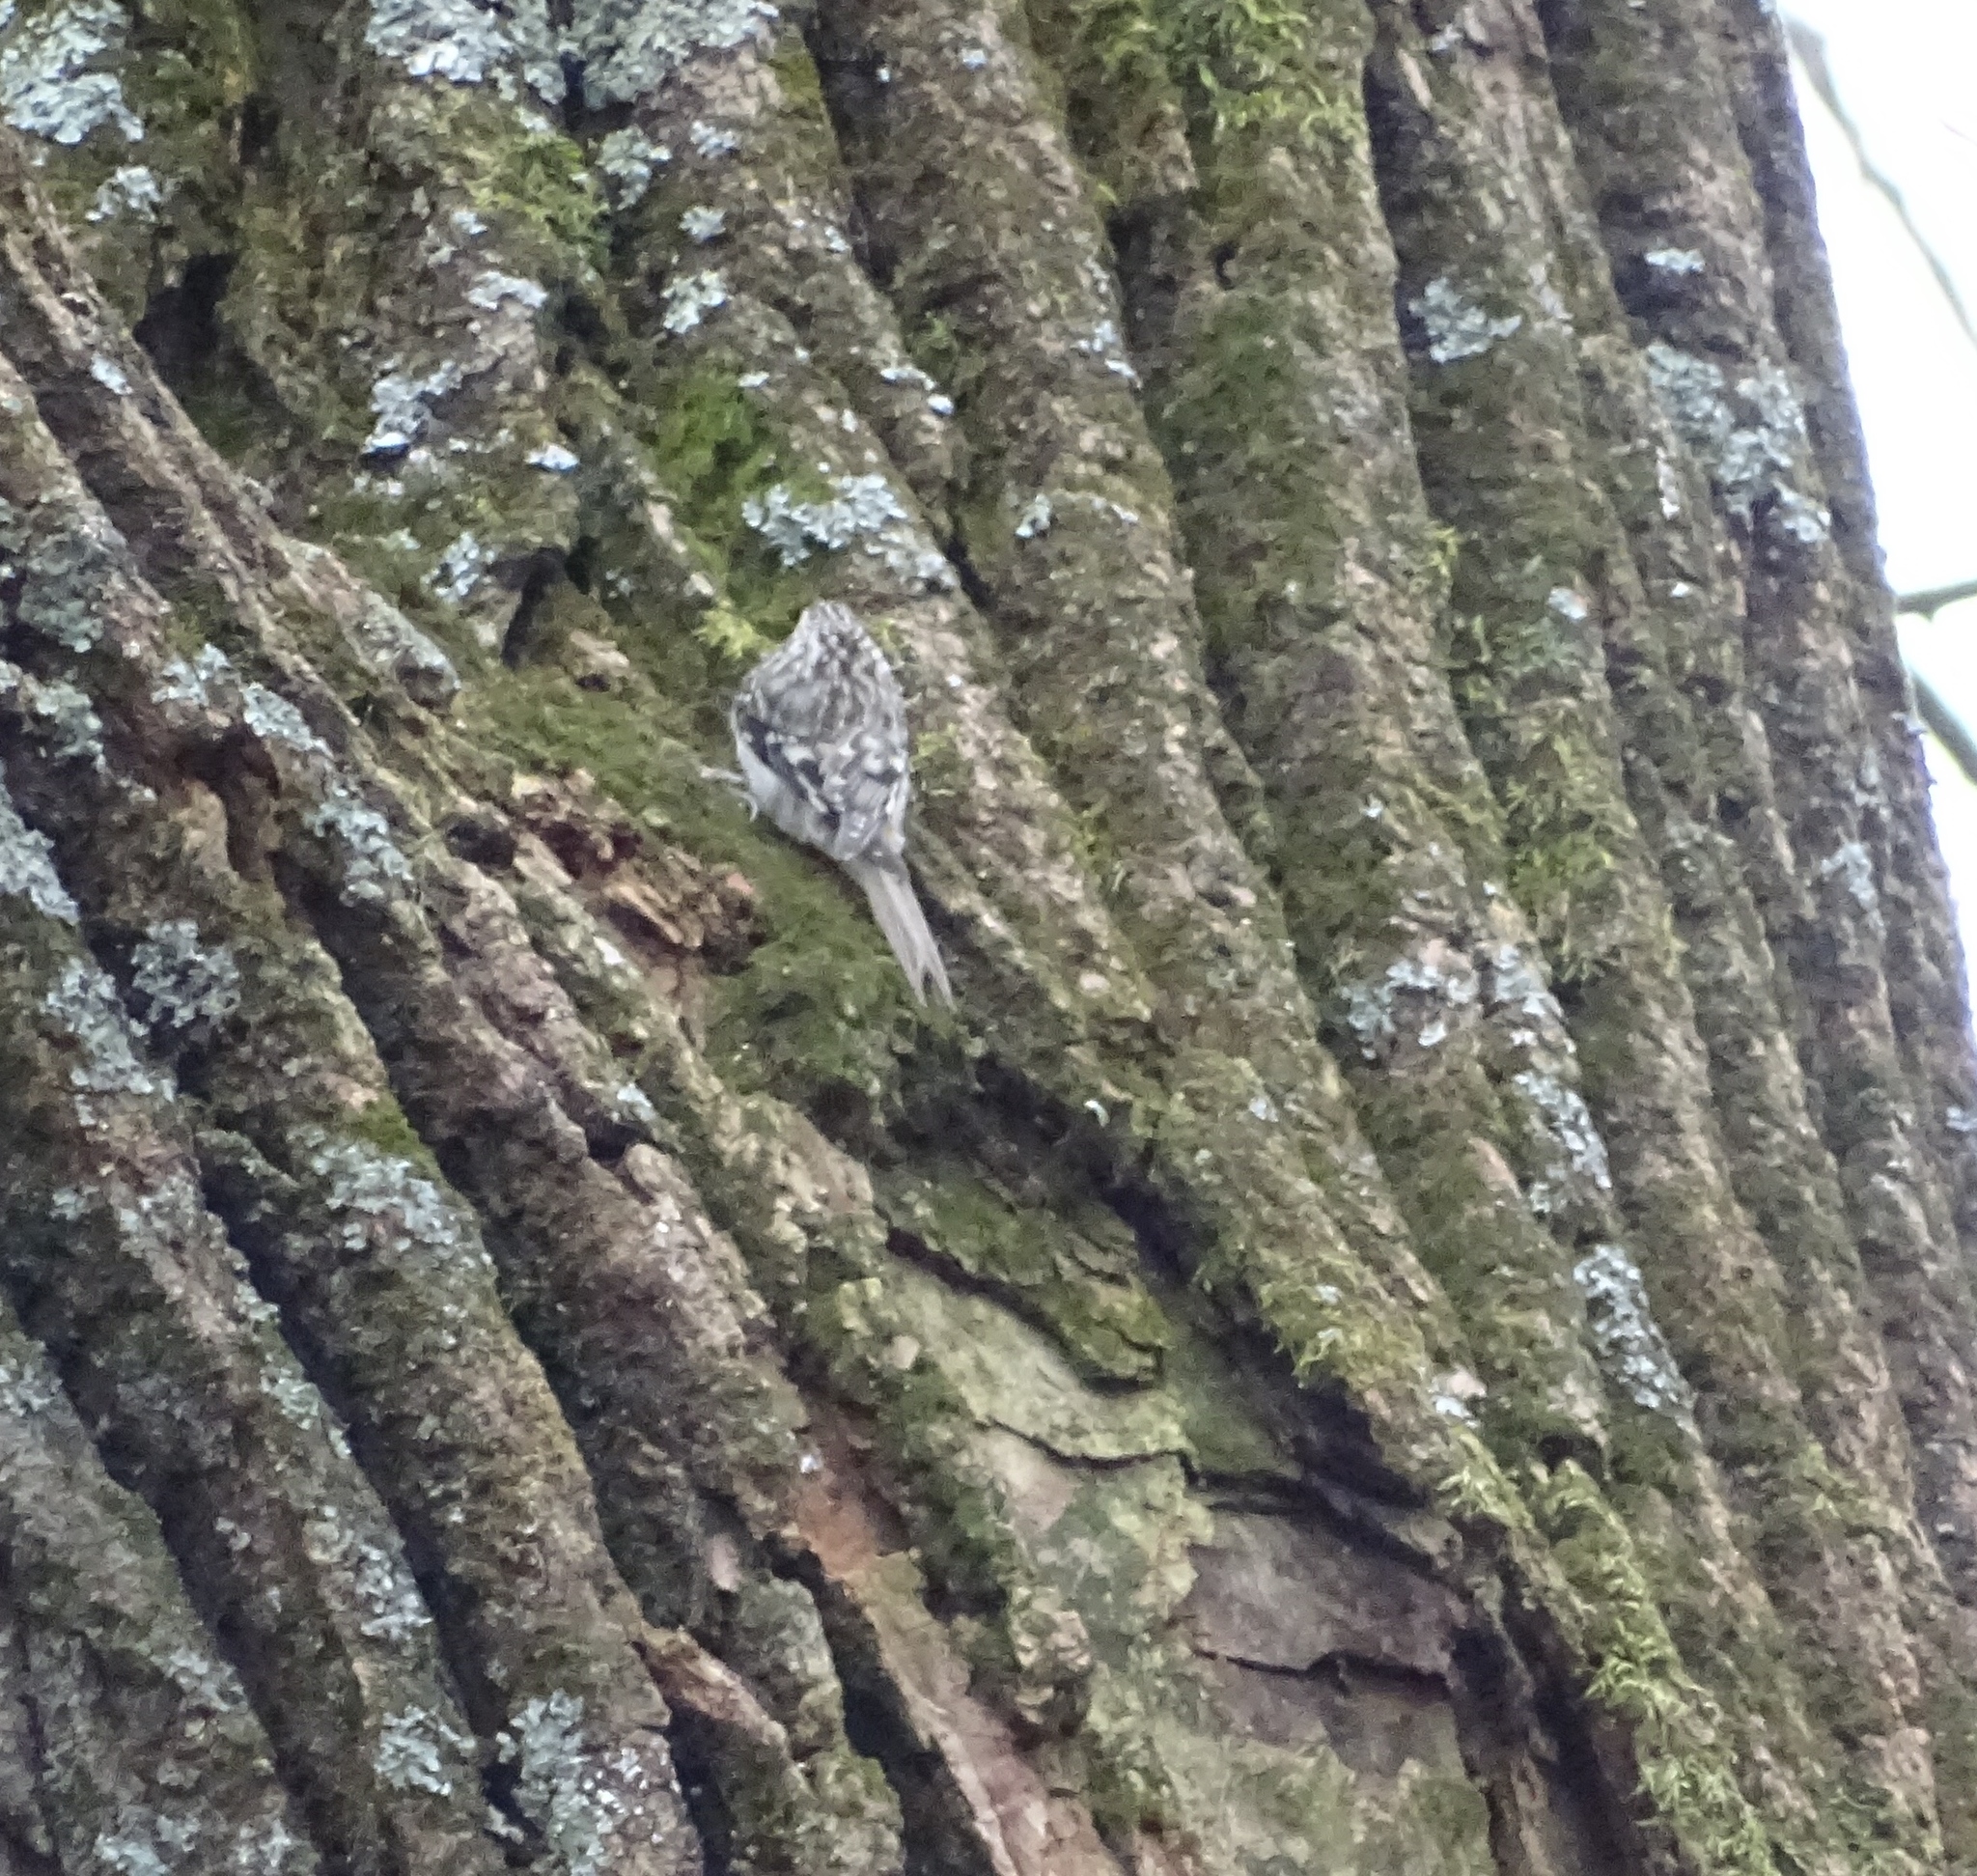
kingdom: Animalia
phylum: Chordata
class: Aves
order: Passeriformes
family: Certhiidae
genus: Certhia
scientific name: Certhia americana
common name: Brown creeper
